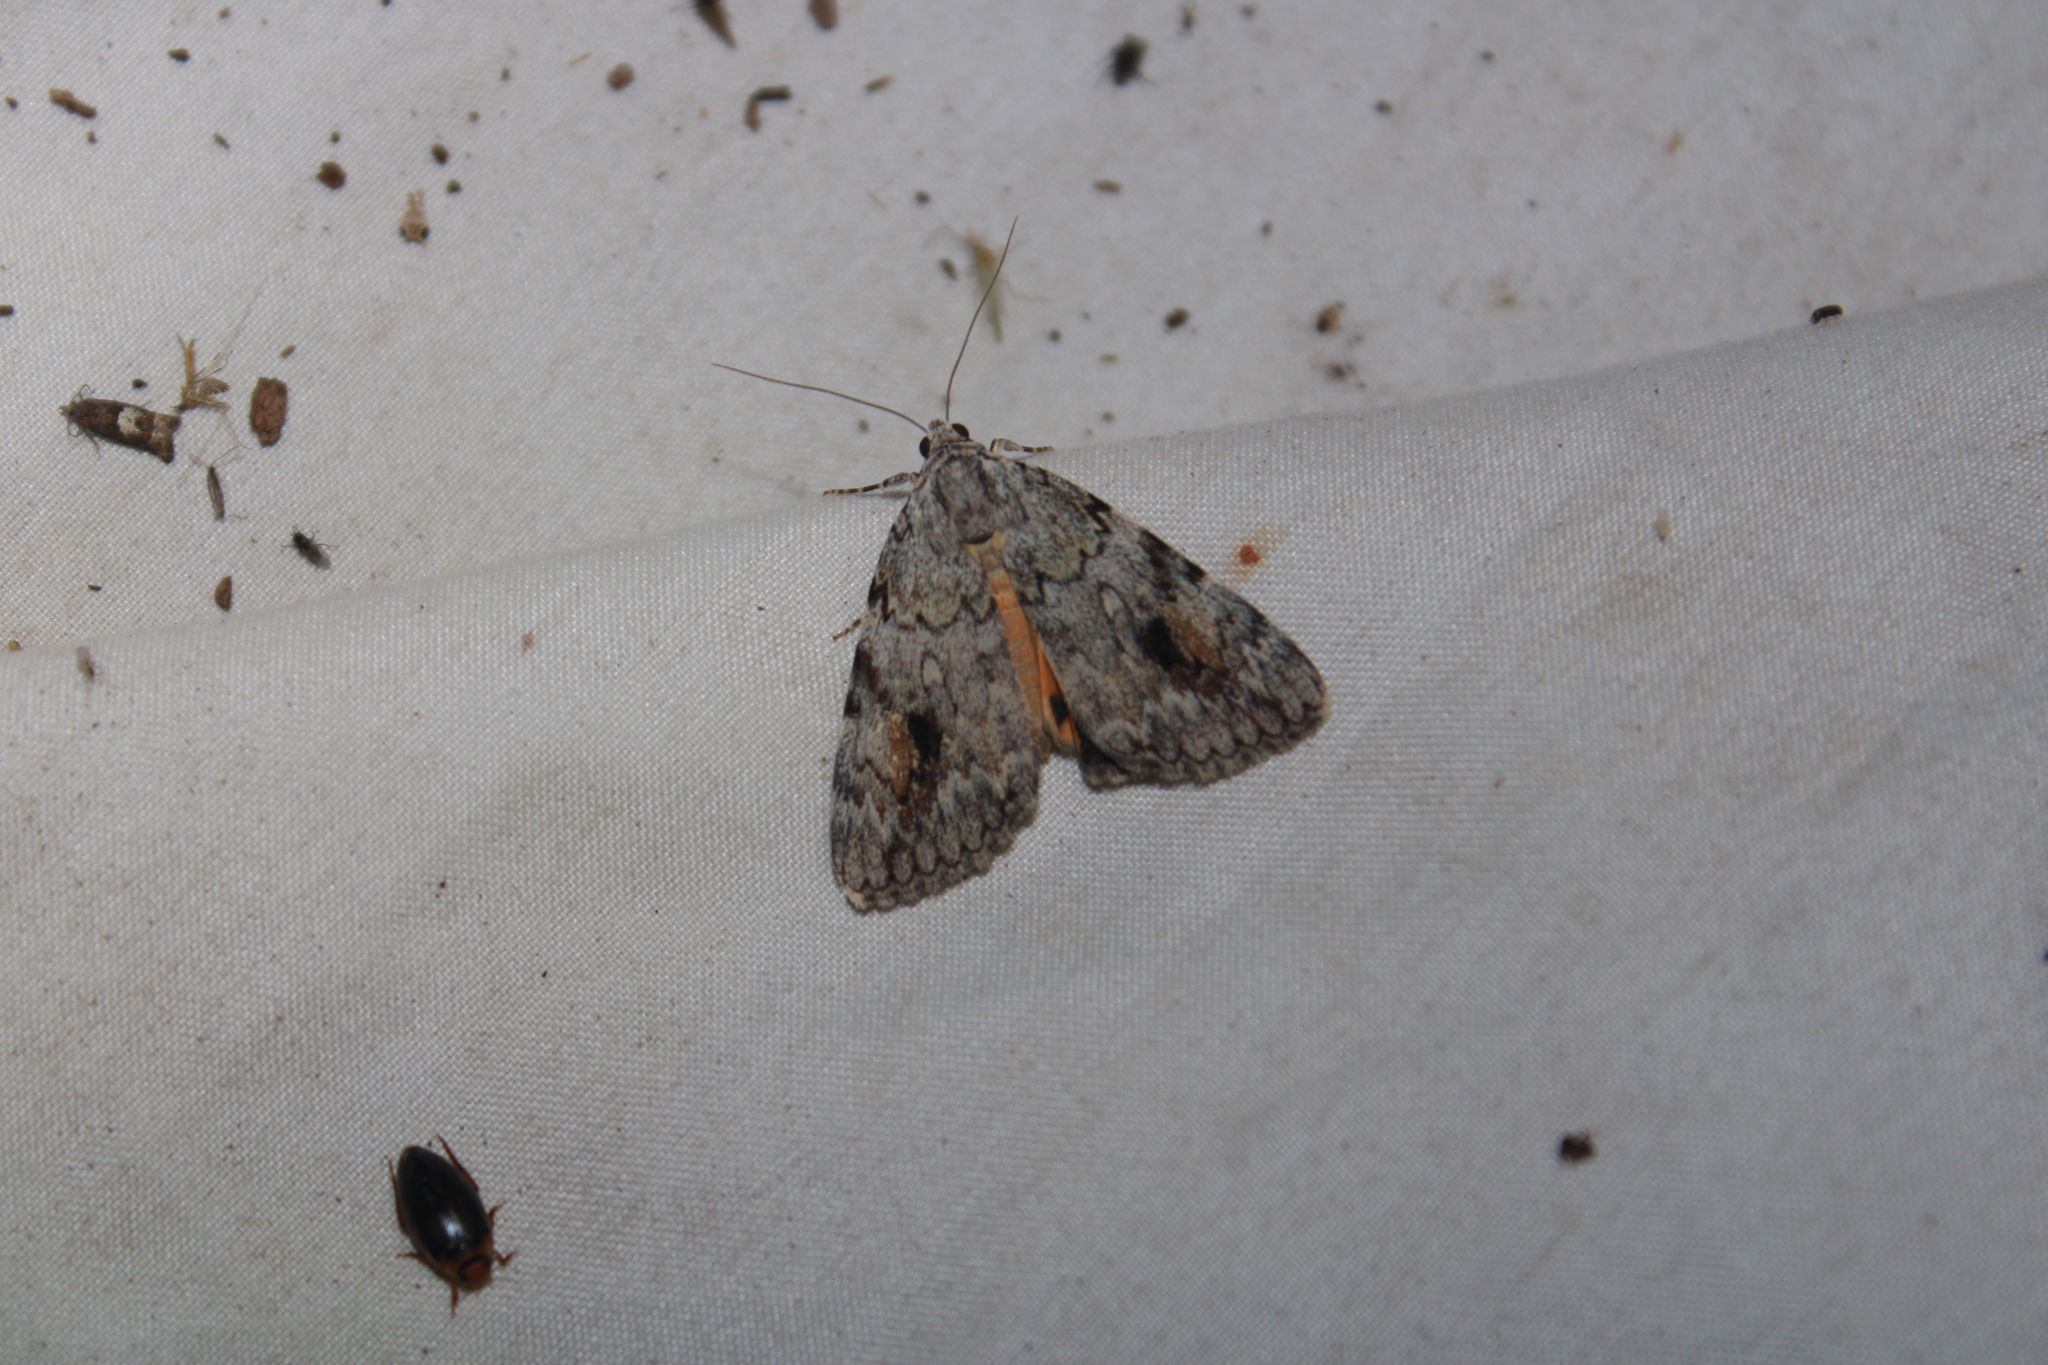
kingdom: Animalia
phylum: Arthropoda
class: Insecta
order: Lepidoptera
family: Erebidae
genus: Catocala
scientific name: Catocala amica
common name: Girlfriend underwing
